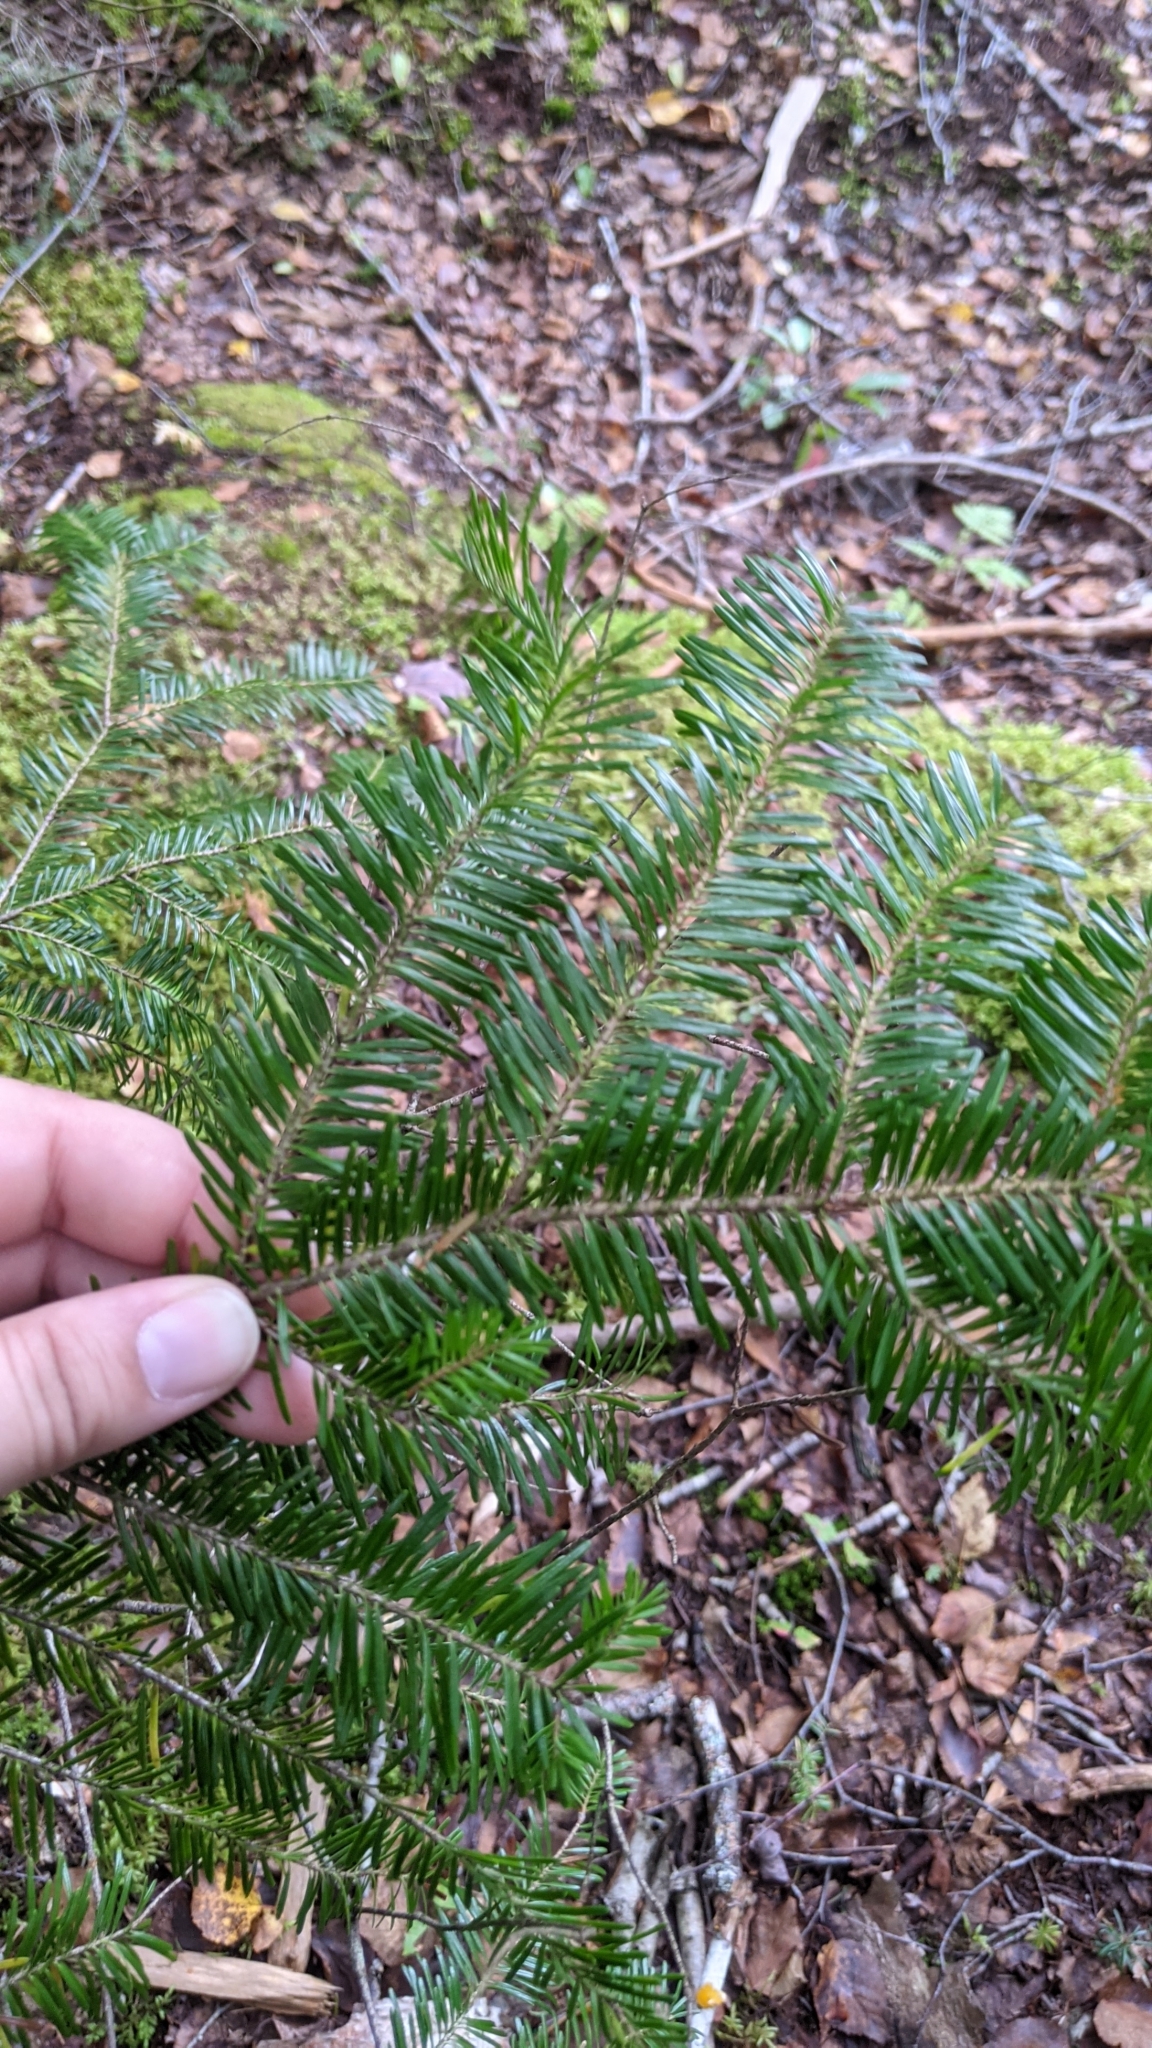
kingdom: Plantae
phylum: Tracheophyta
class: Pinopsida
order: Pinales
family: Pinaceae
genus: Abies
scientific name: Abies balsamea
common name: Balsam fir
